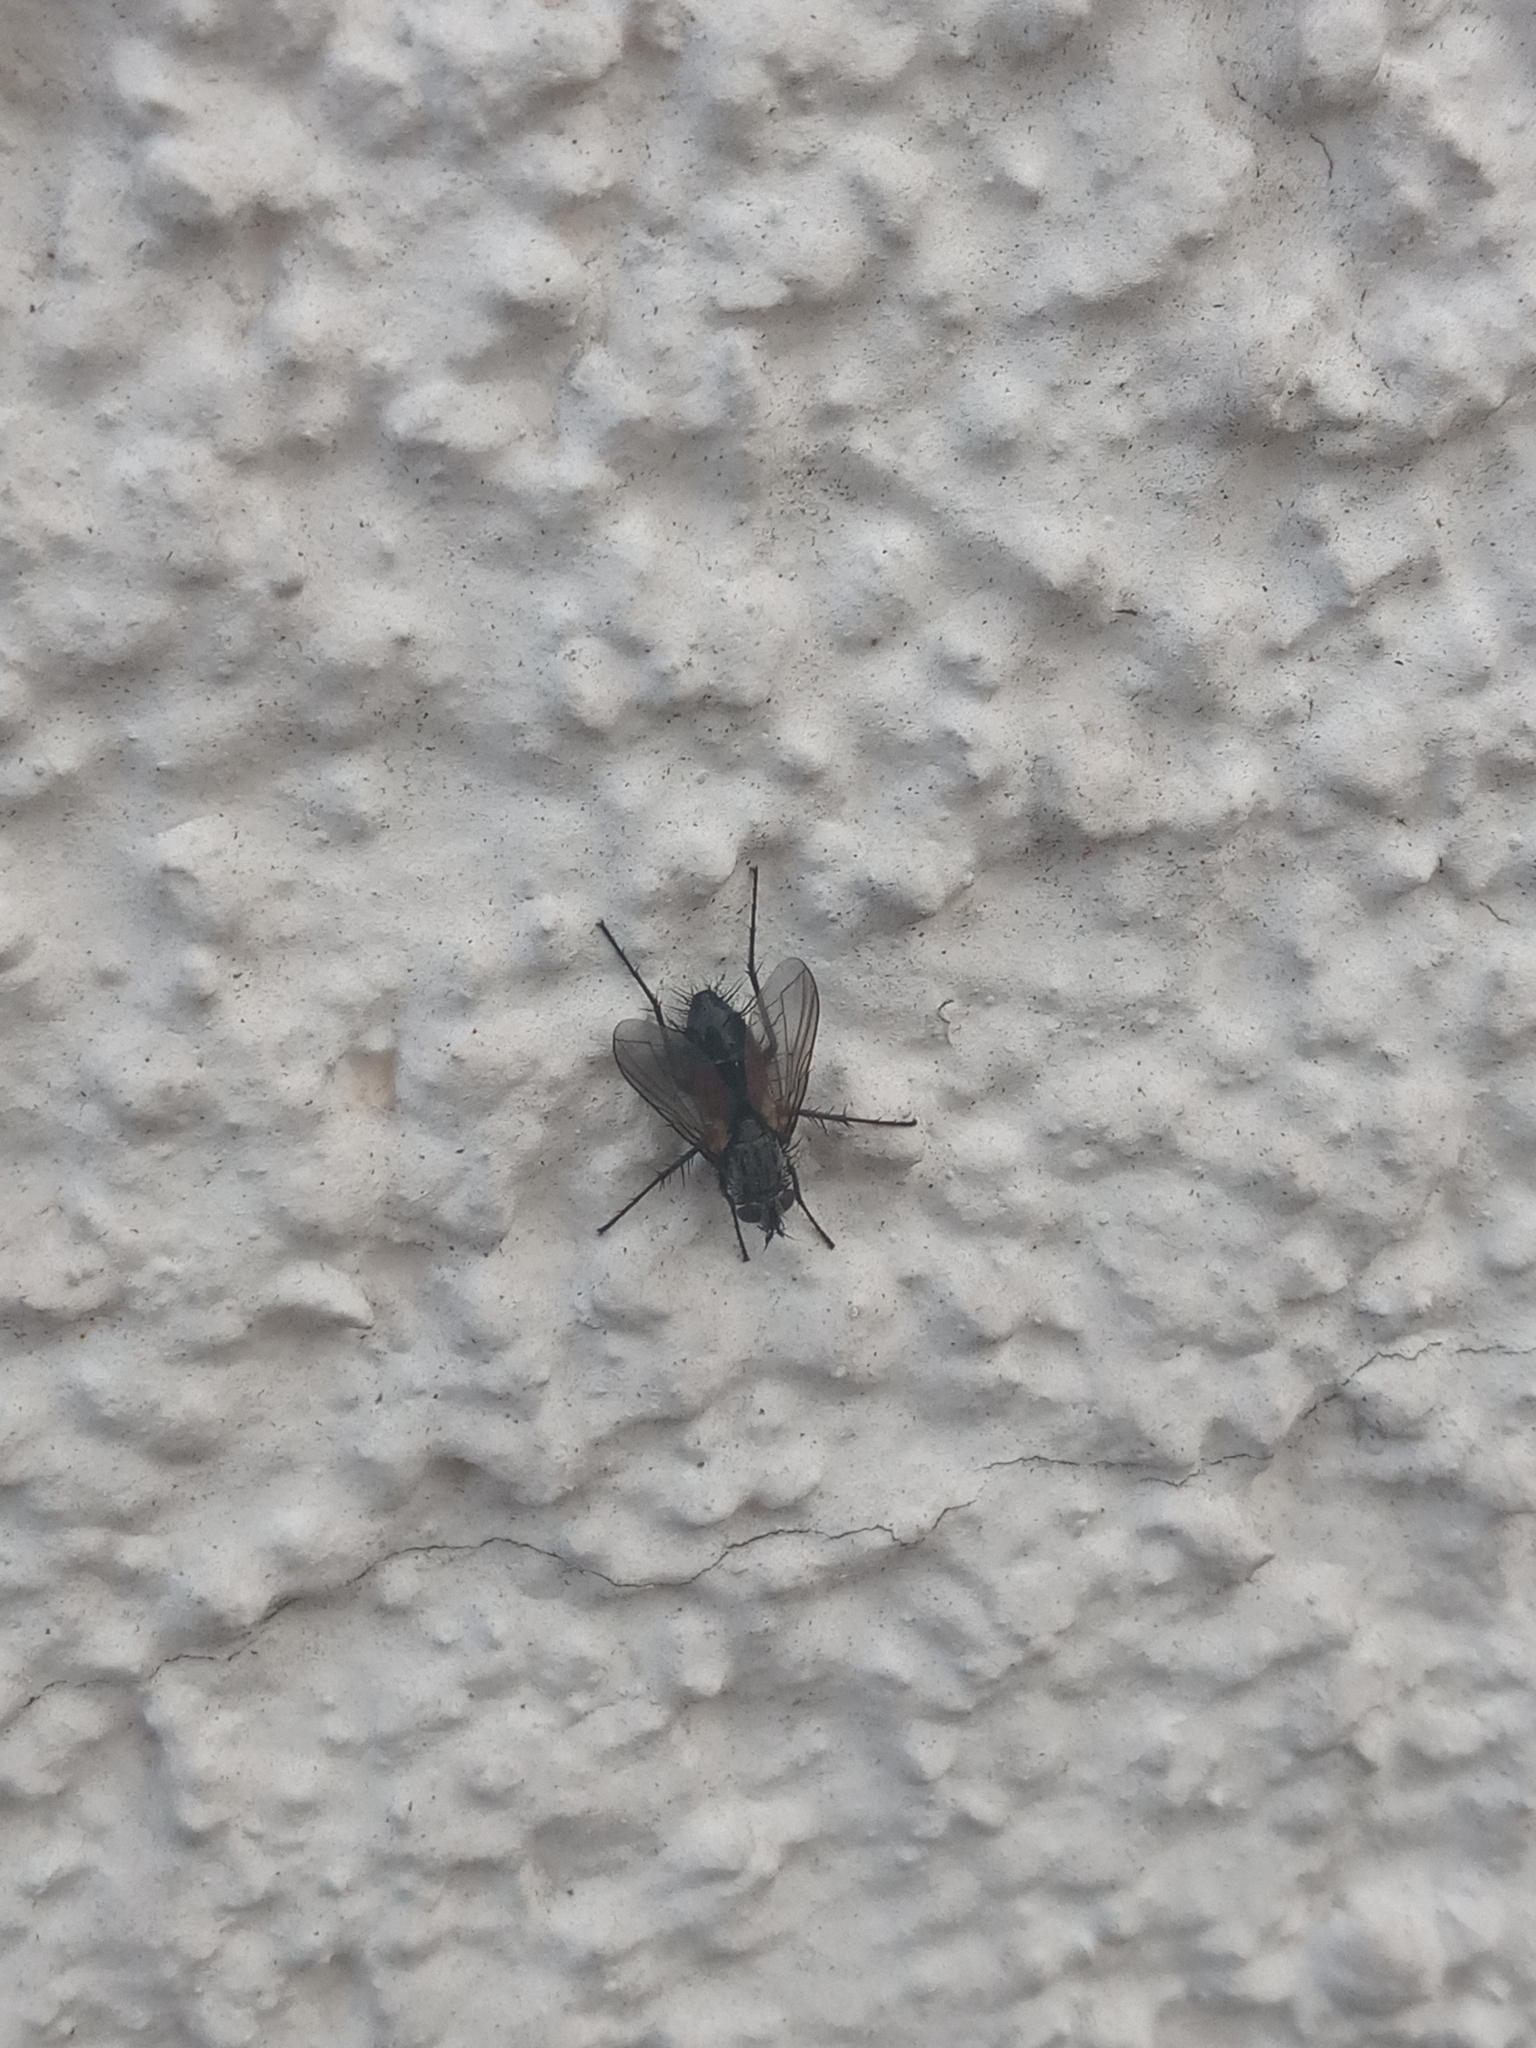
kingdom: Animalia
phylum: Arthropoda
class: Insecta
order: Diptera
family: Tachinidae
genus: Eriothrix
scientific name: Eriothrix rufomaculatus
